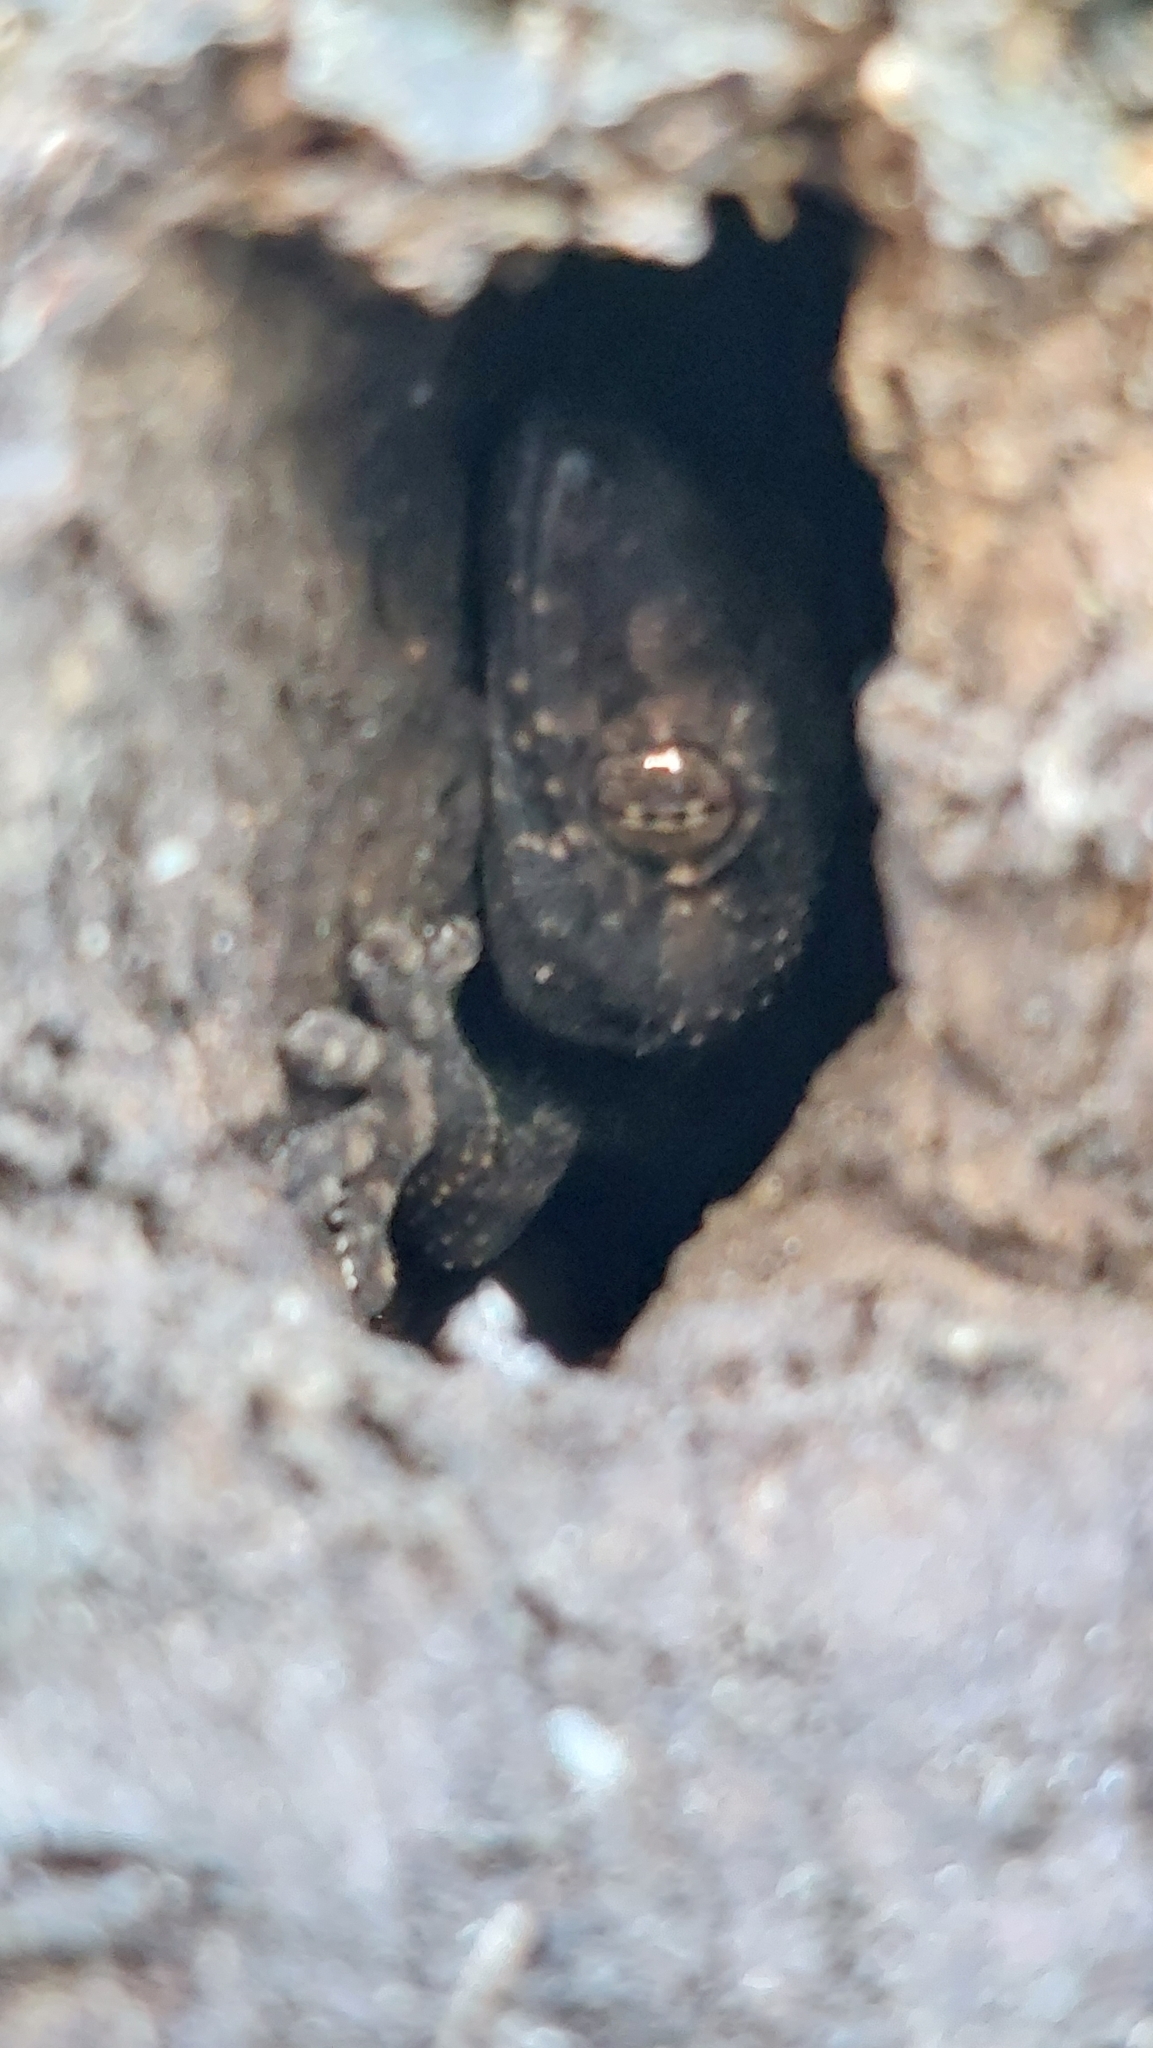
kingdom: Animalia
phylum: Chordata
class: Squamata
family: Gekkonidae
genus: Hemidactylus
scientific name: Hemidactylus mabouia
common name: House gecko
